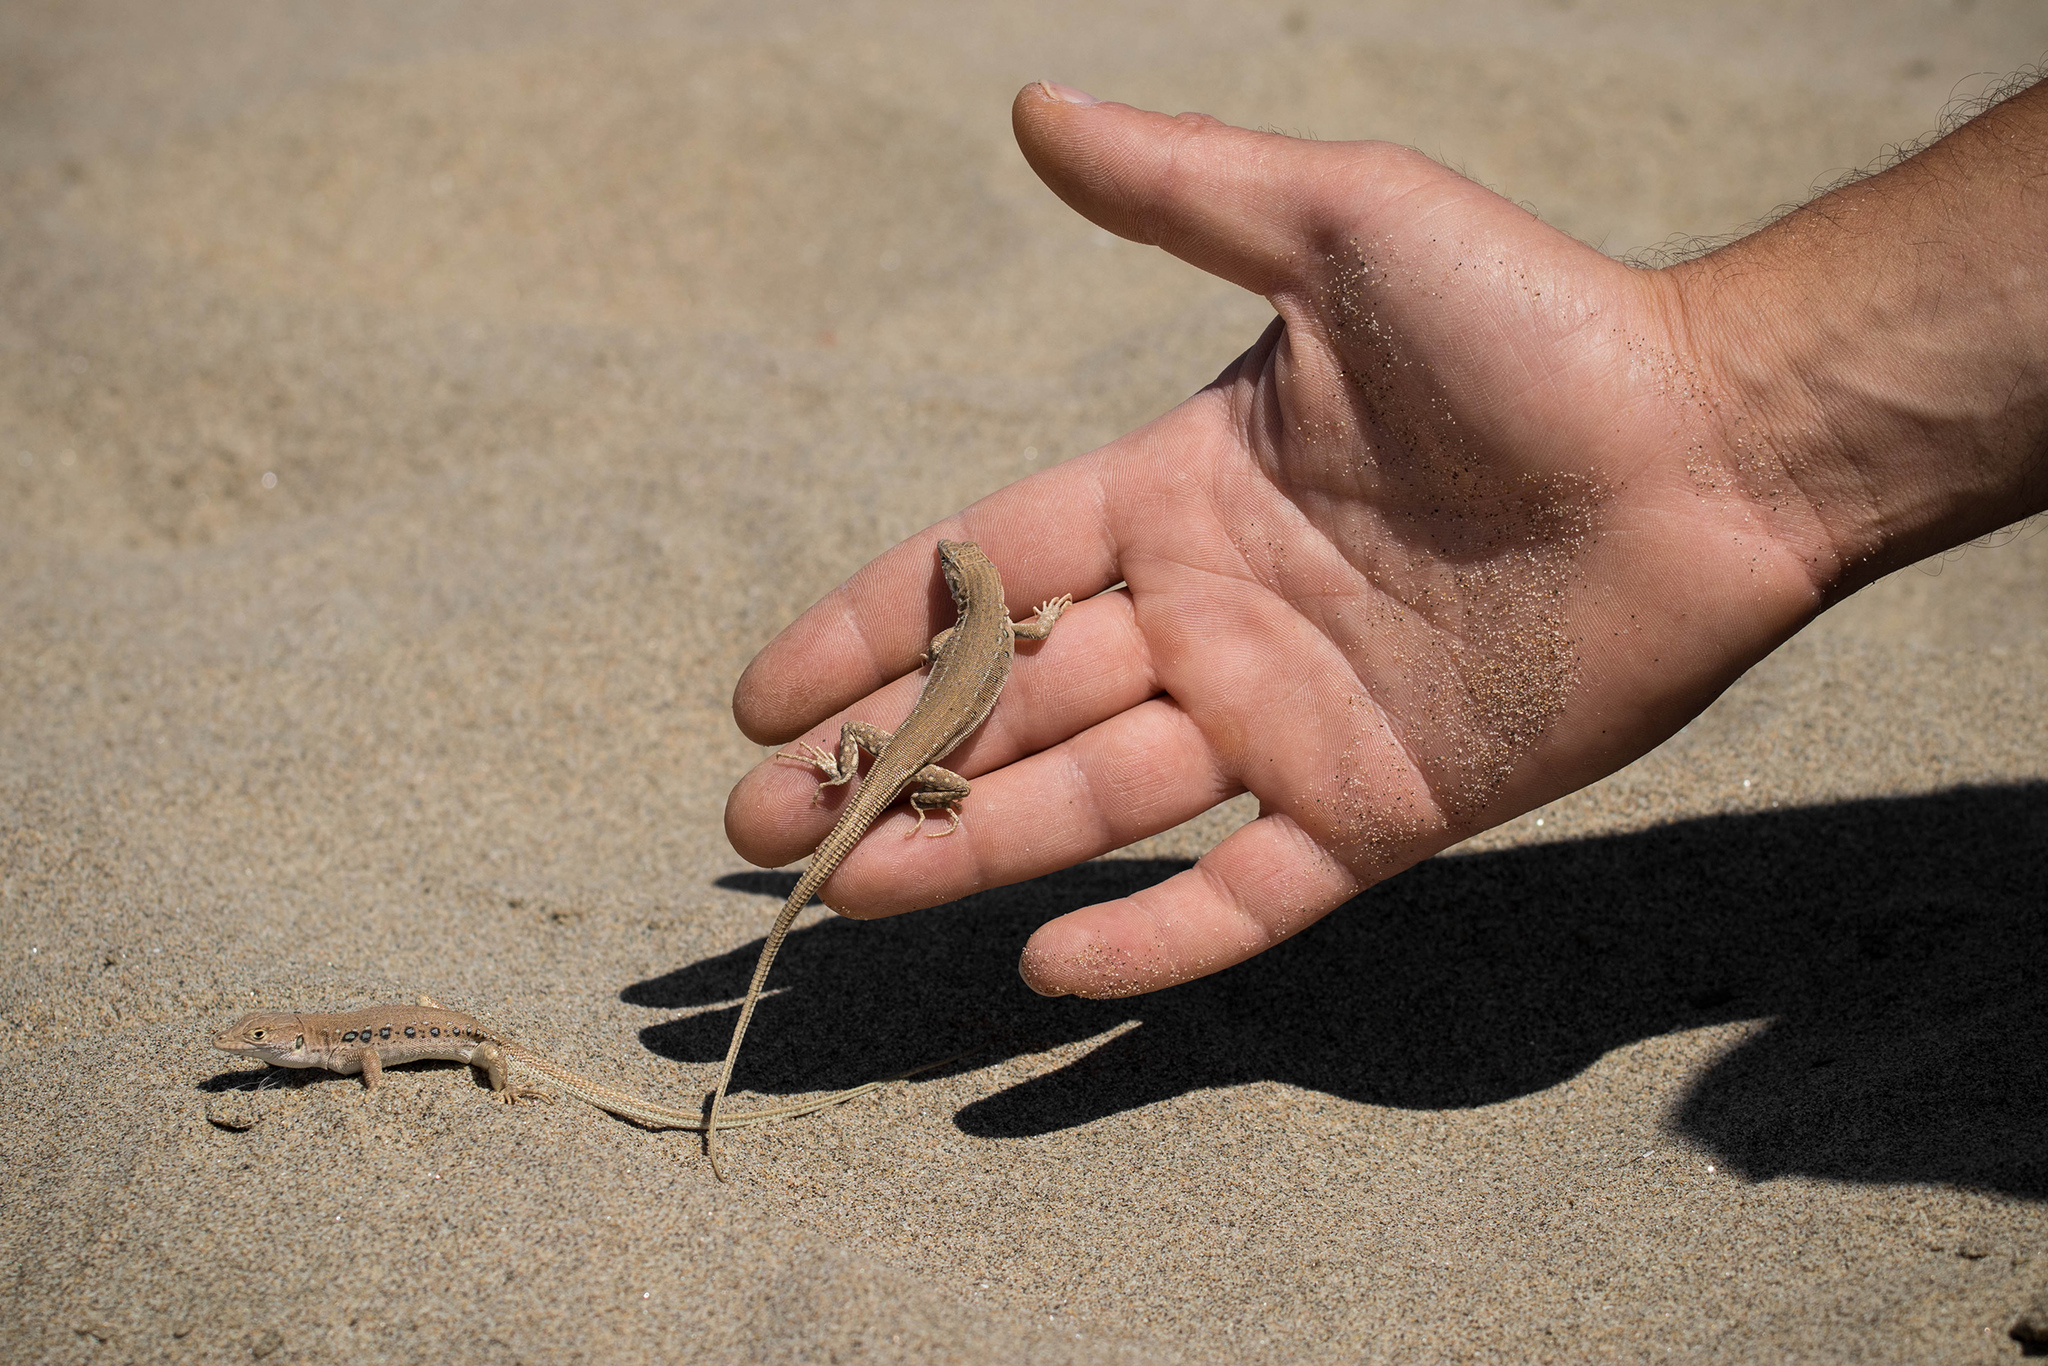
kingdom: Animalia
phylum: Chordata
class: Squamata
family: Lacertidae
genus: Eremias
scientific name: Eremias velox
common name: Central asian racerunner
